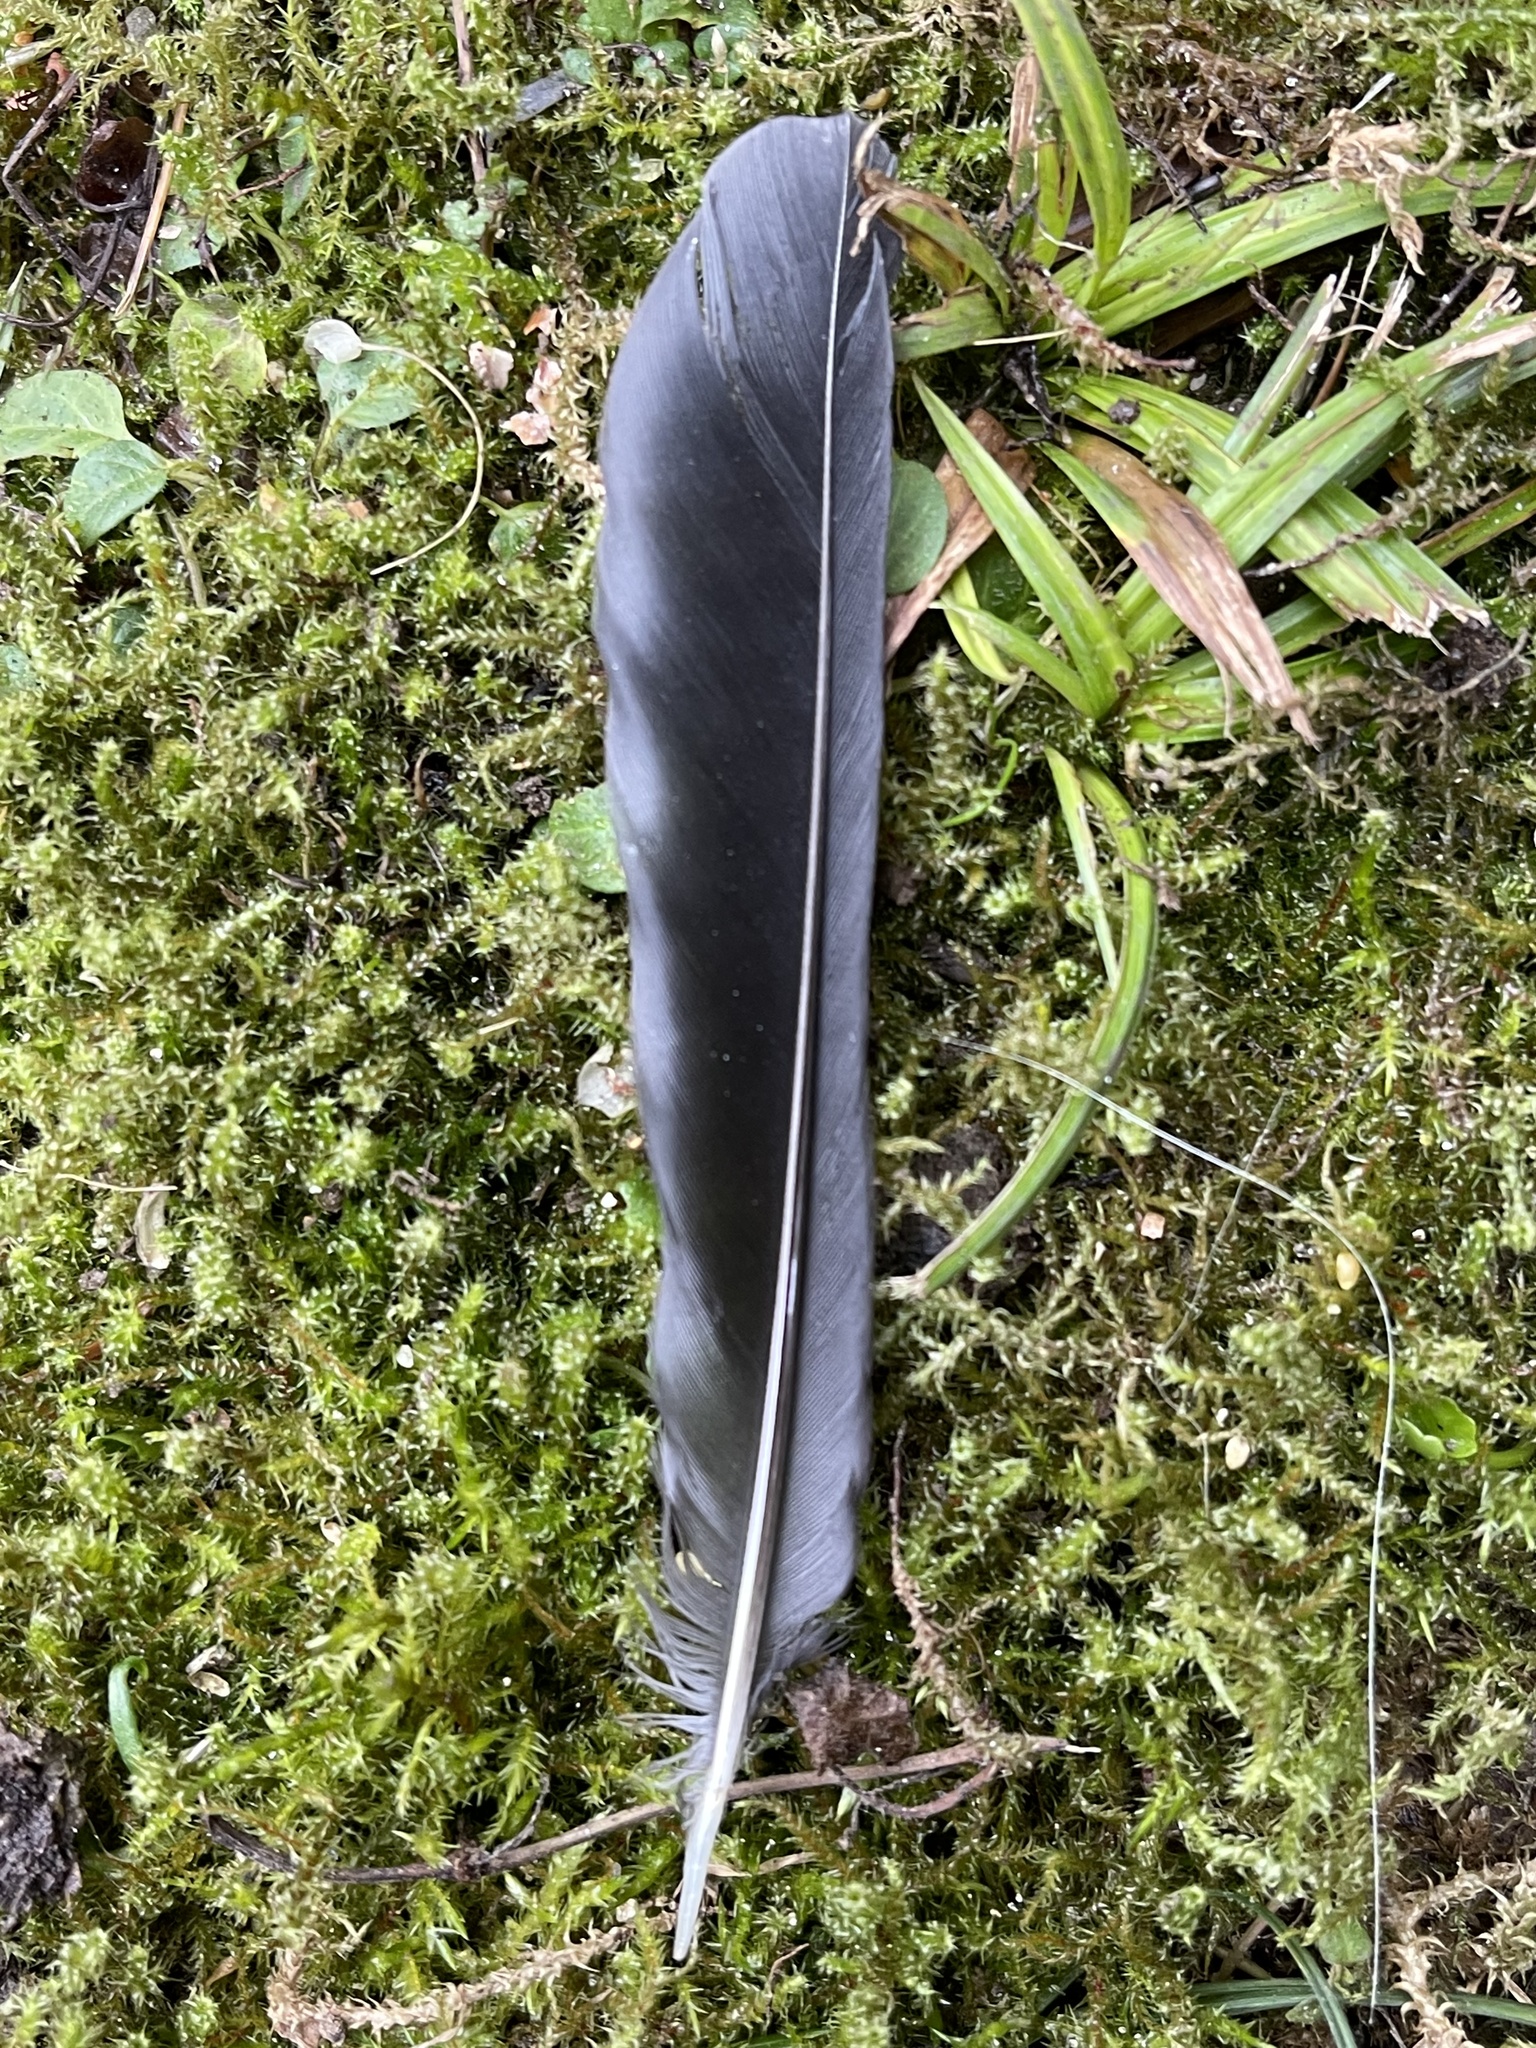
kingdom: Animalia
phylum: Chordata
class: Aves
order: Passeriformes
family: Turdidae
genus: Turdus
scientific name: Turdus merula
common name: Common blackbird
